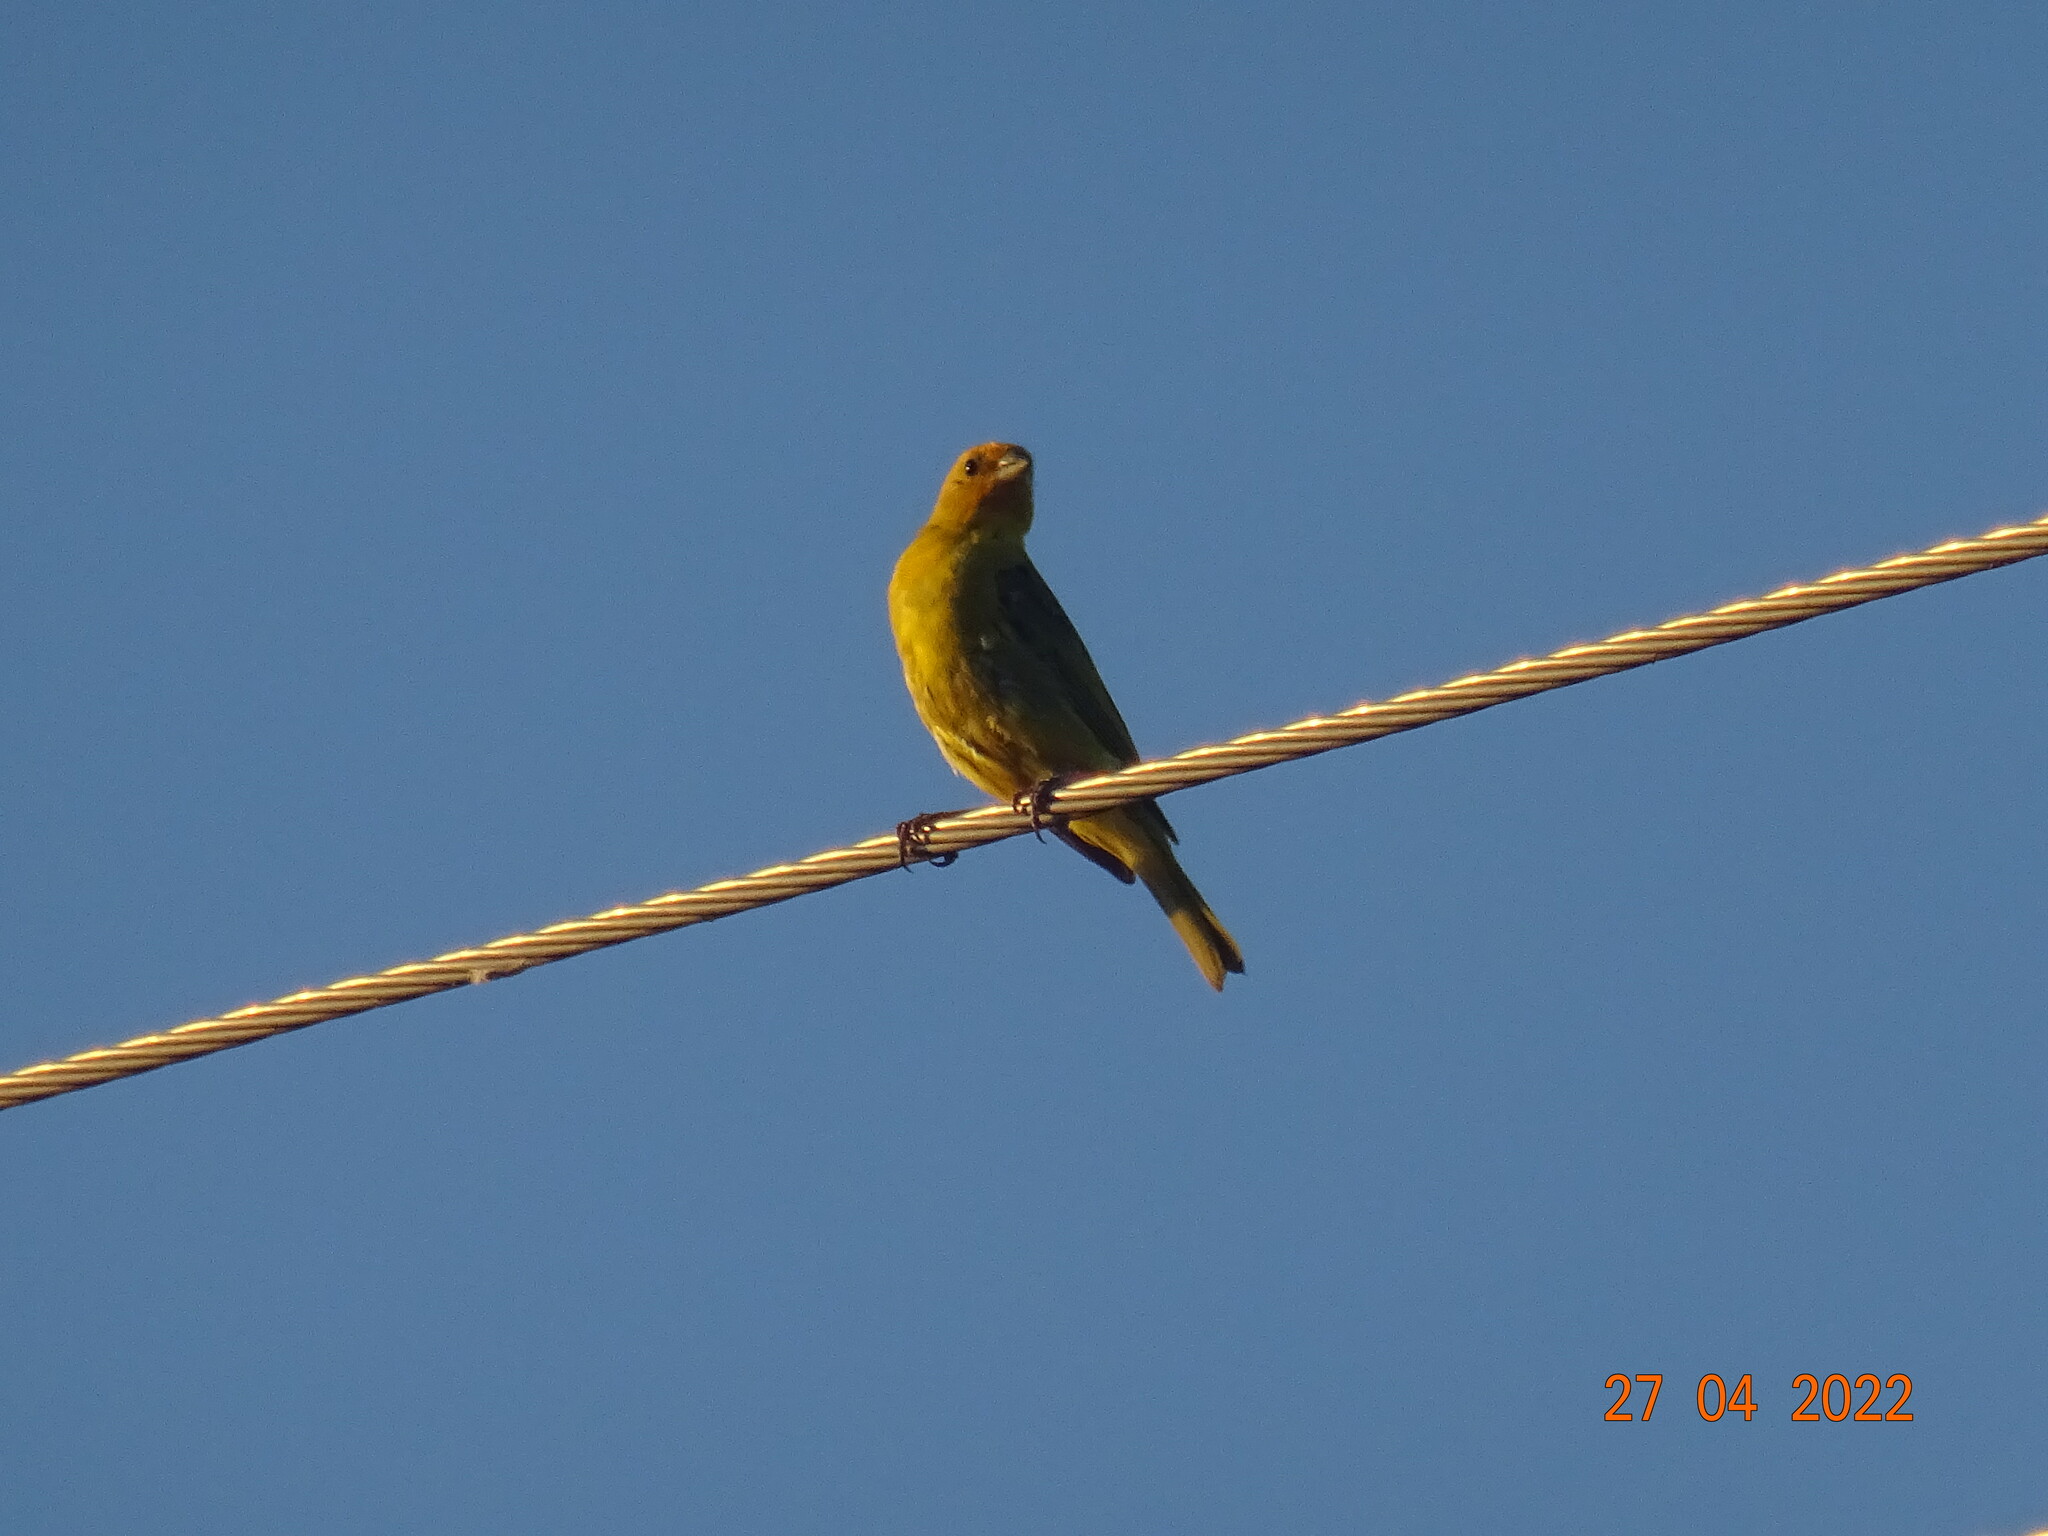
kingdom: Animalia
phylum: Chordata
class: Aves
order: Passeriformes
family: Thraupidae
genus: Sicalis
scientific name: Sicalis flaveola
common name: Saffron finch
